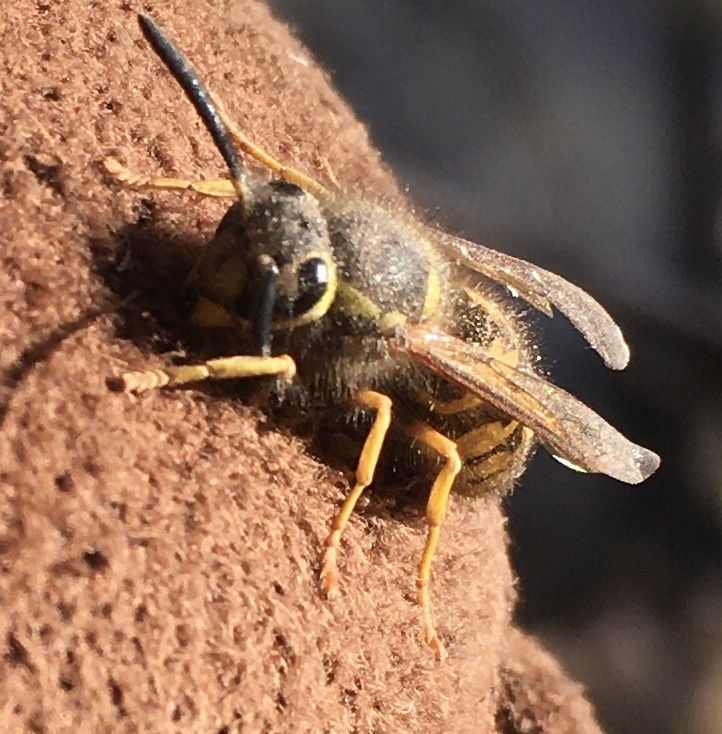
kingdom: Animalia
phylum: Arthropoda
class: Insecta
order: Hymenoptera
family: Vespidae
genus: Vespula
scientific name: Vespula pensylvanica
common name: Western yellowjacket
